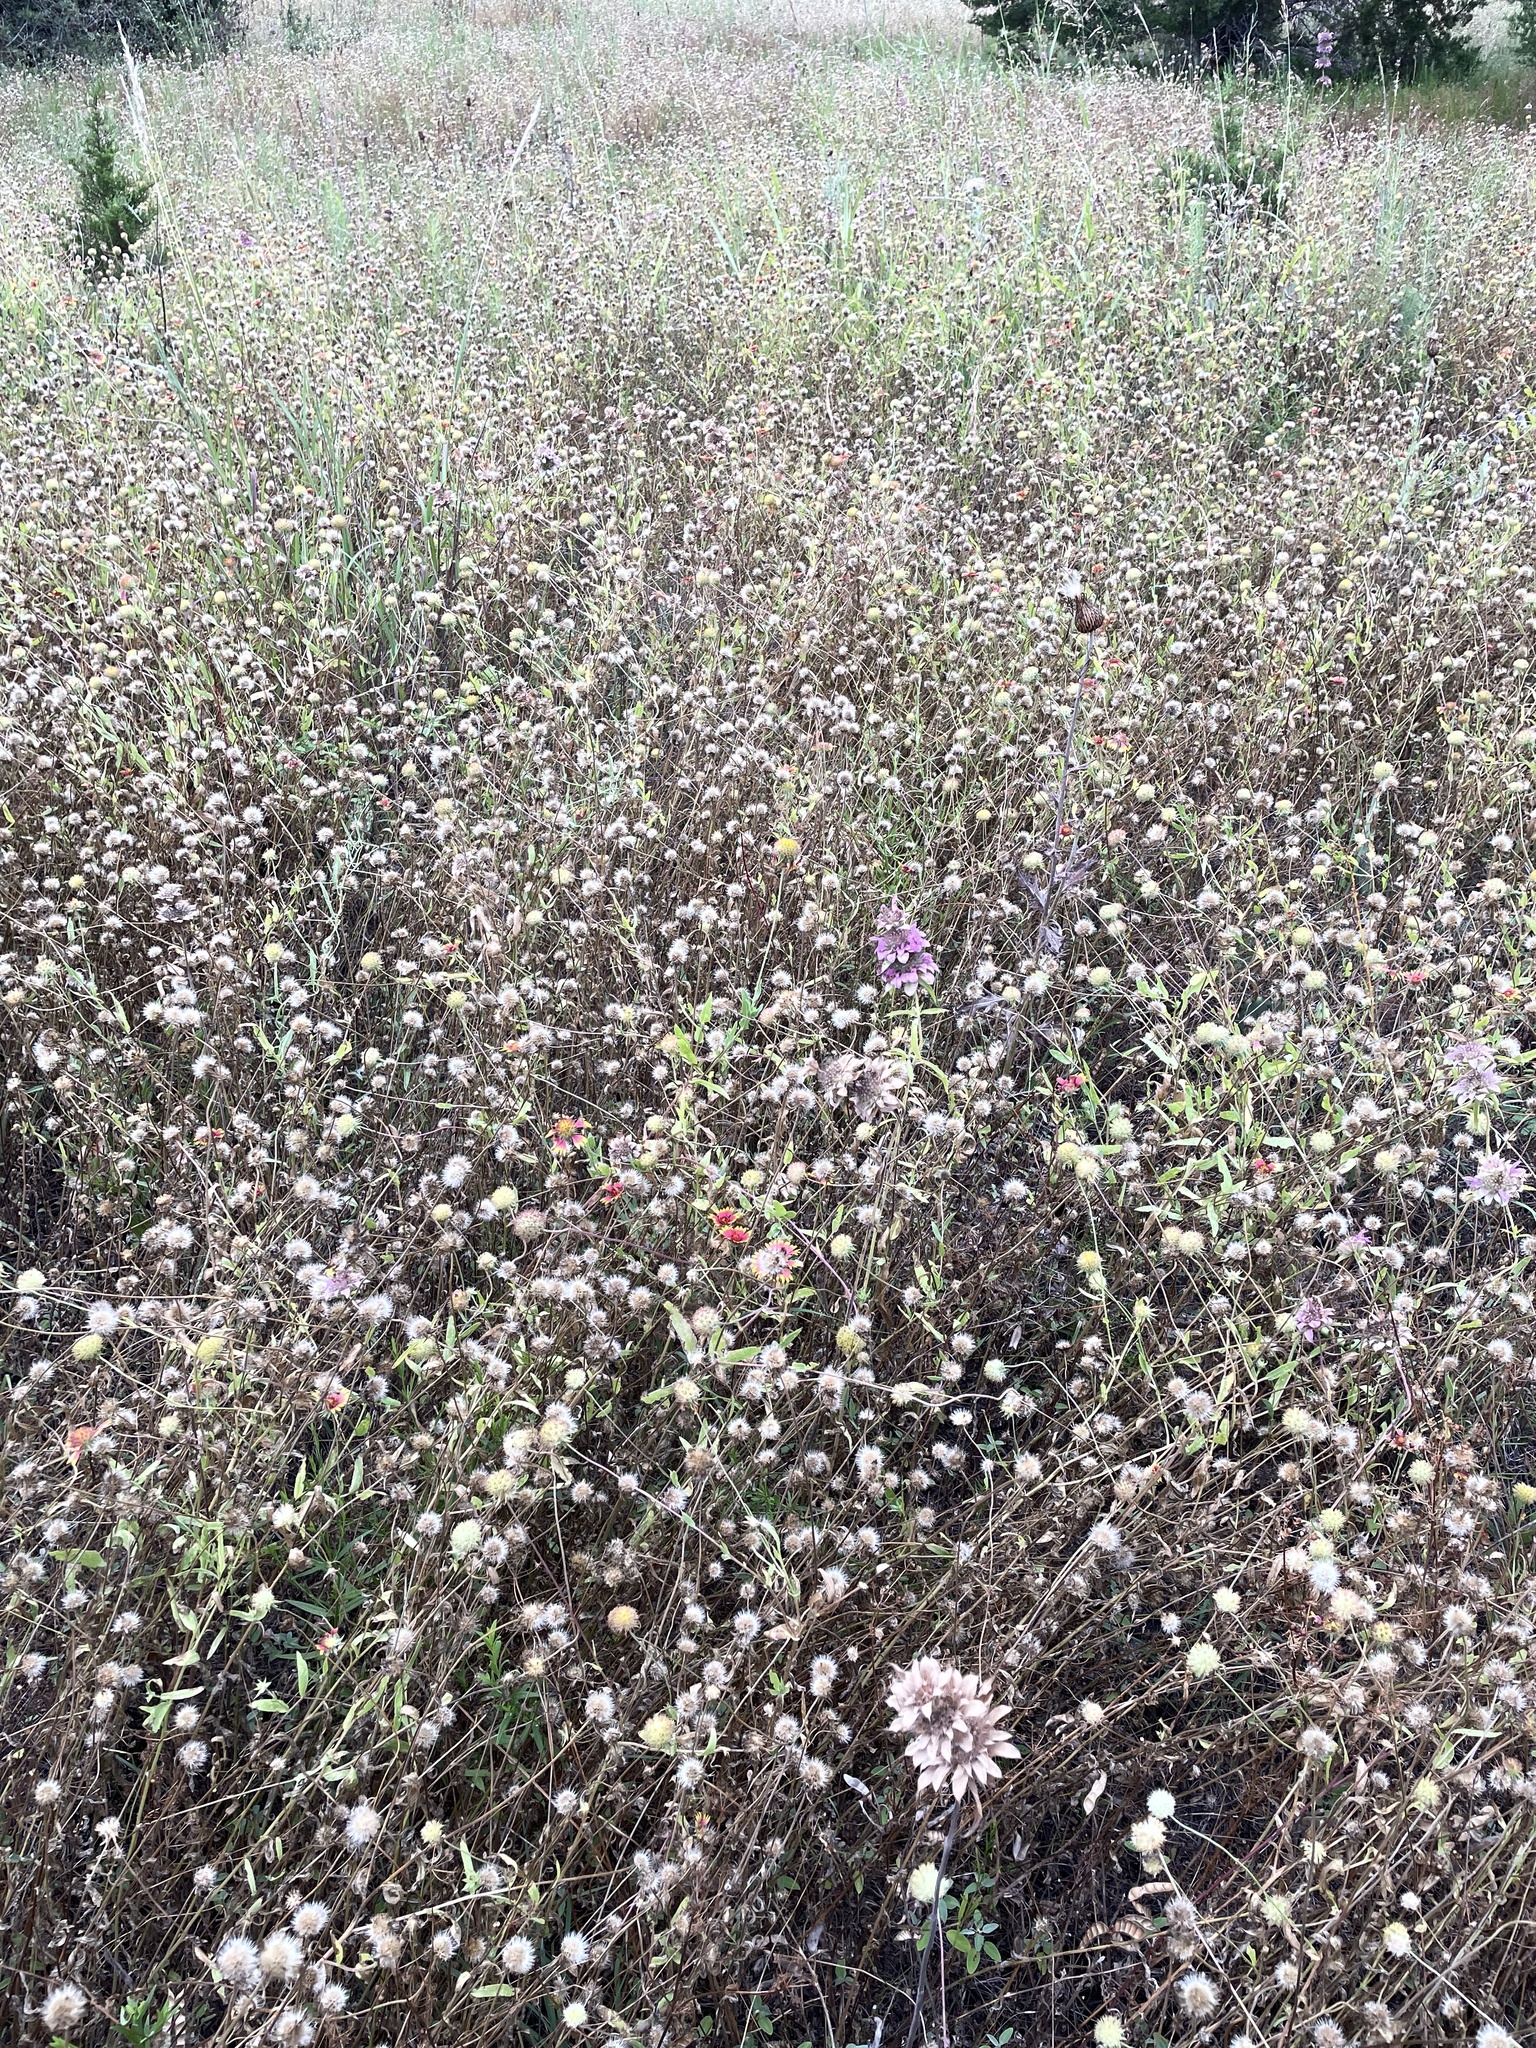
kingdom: Plantae
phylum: Tracheophyta
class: Magnoliopsida
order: Asterales
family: Asteraceae
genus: Gaillardia
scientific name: Gaillardia pulchella
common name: Firewheel
